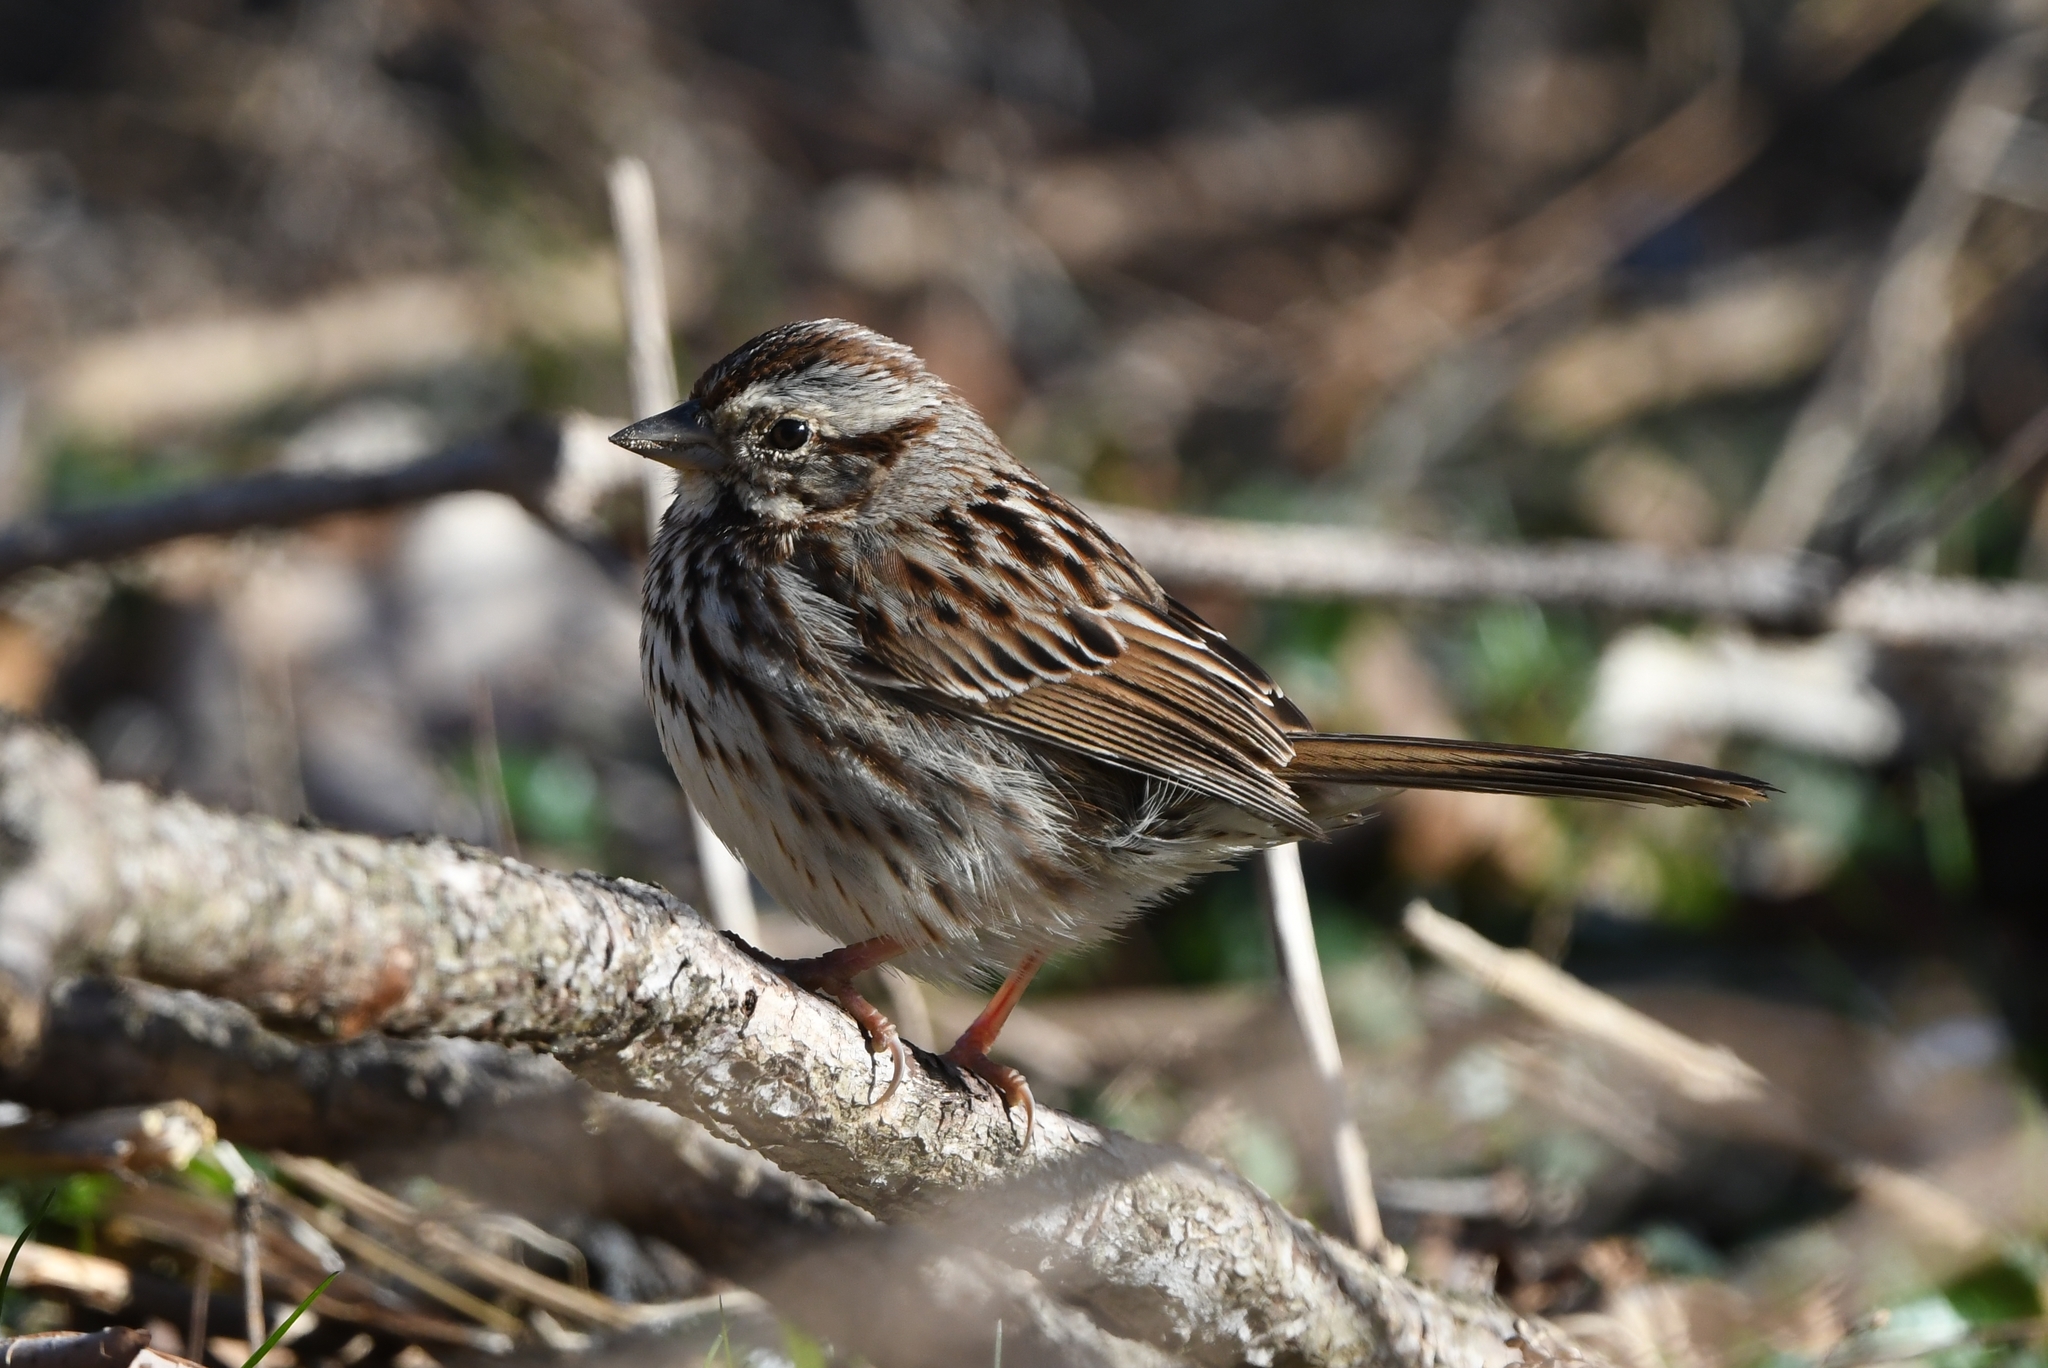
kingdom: Animalia
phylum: Chordata
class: Aves
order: Passeriformes
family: Passerellidae
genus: Melospiza
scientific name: Melospiza melodia
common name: Song sparrow
